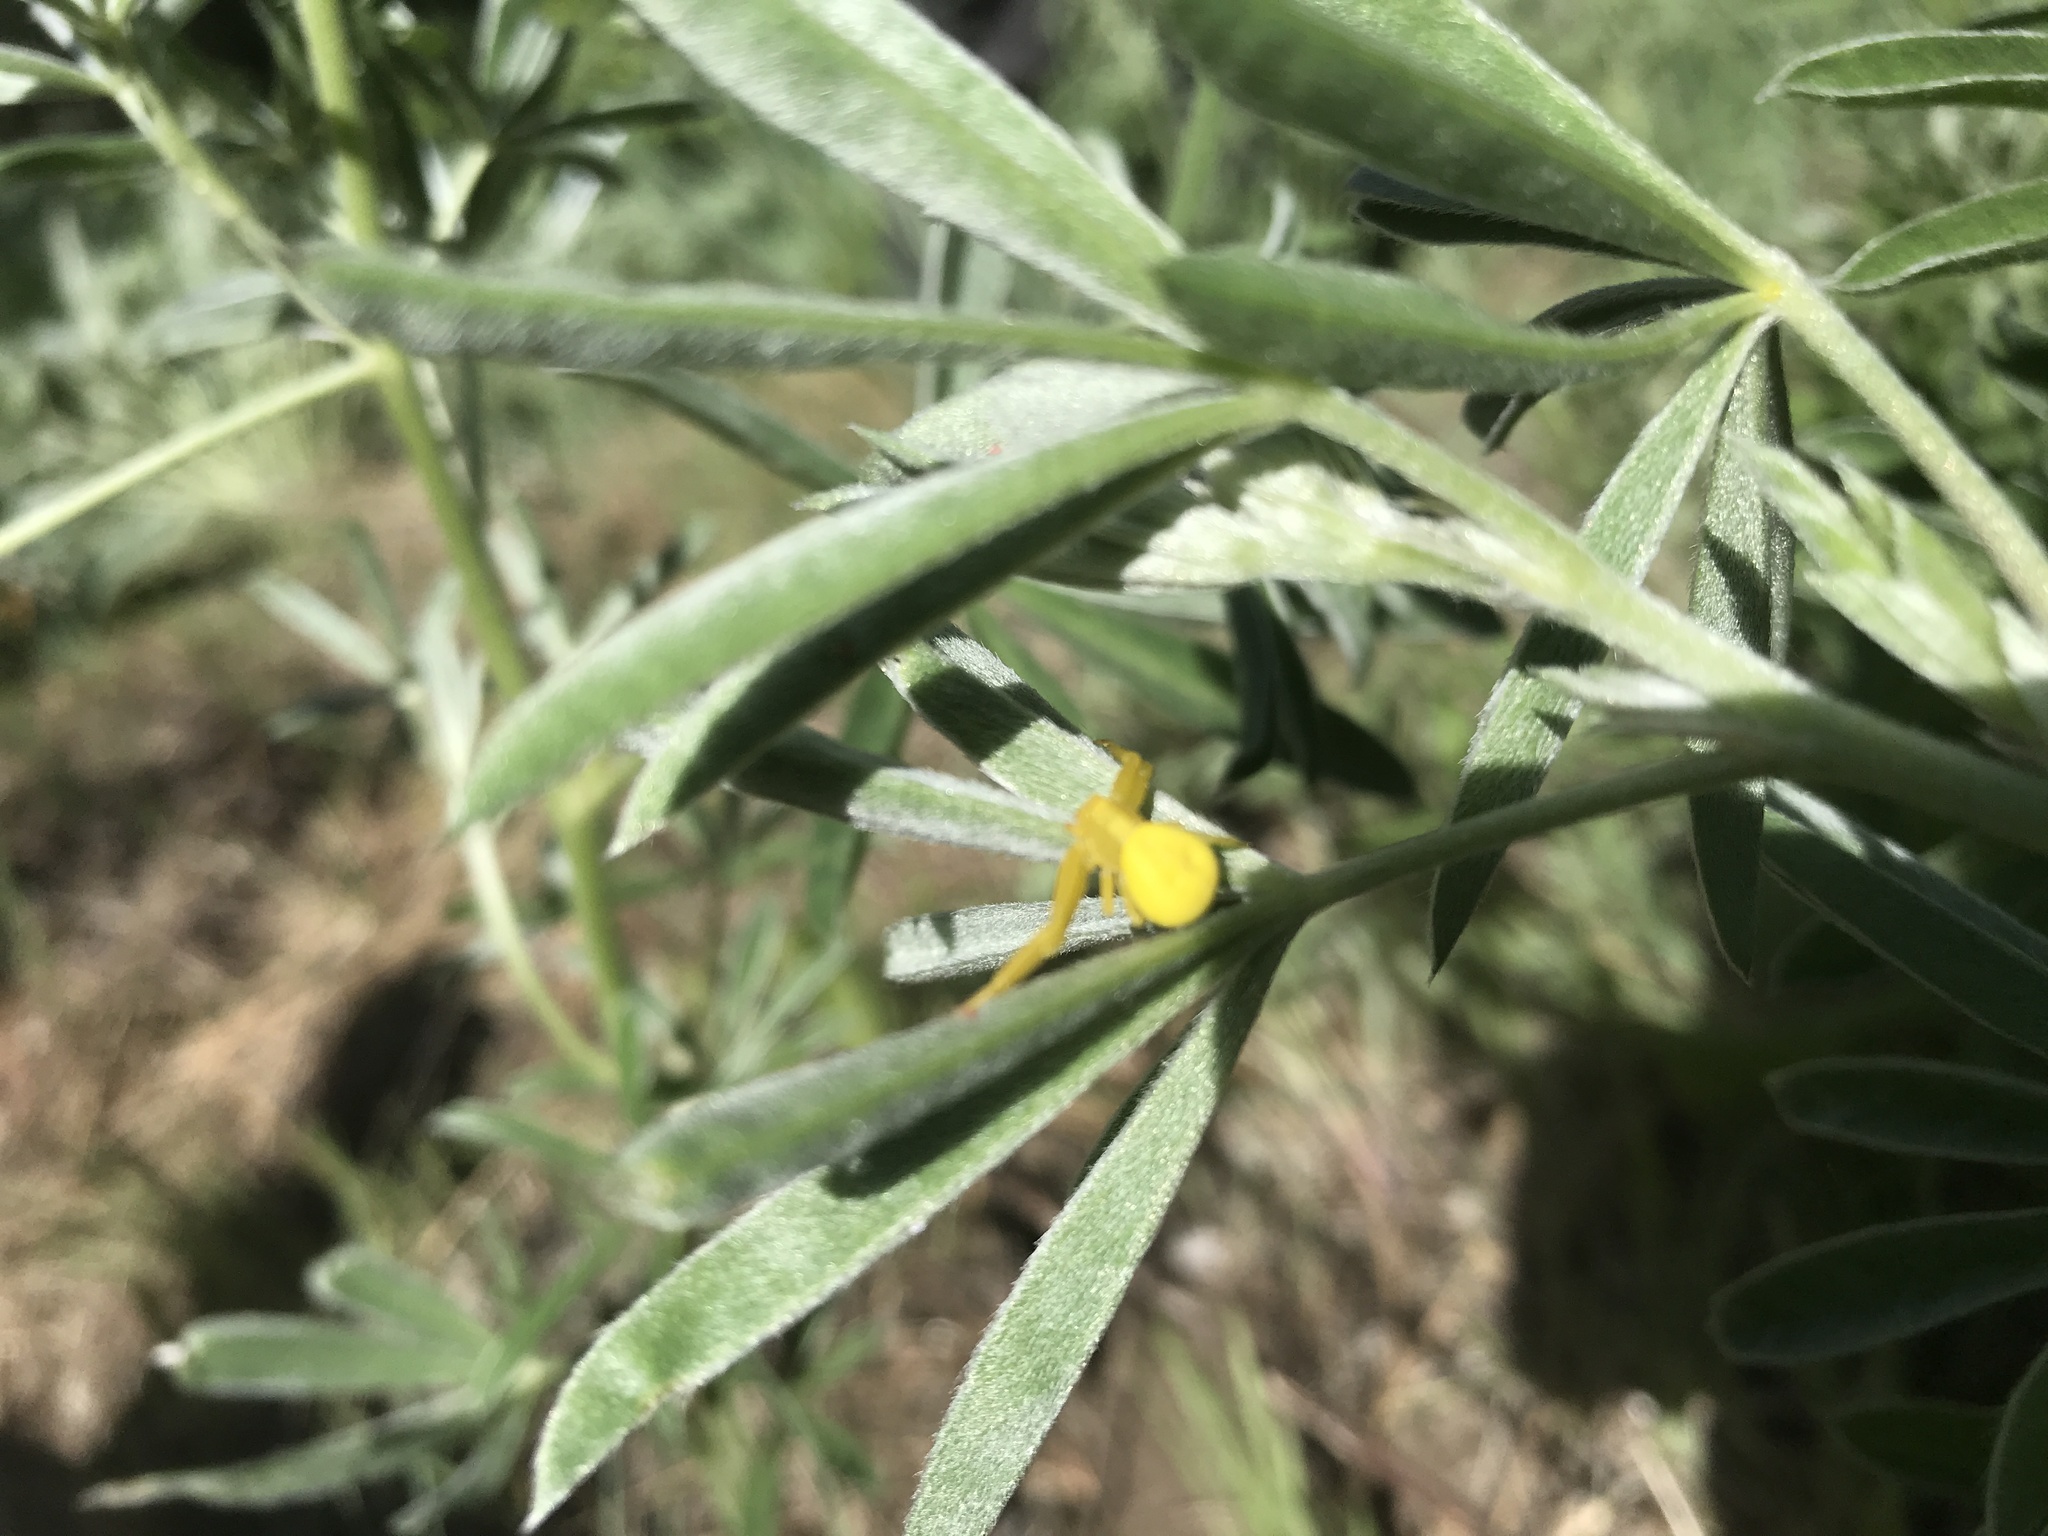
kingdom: Animalia
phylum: Arthropoda
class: Arachnida
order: Araneae
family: Thomisidae
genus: Misumena
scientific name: Misumena vatia
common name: Goldenrod crab spider
